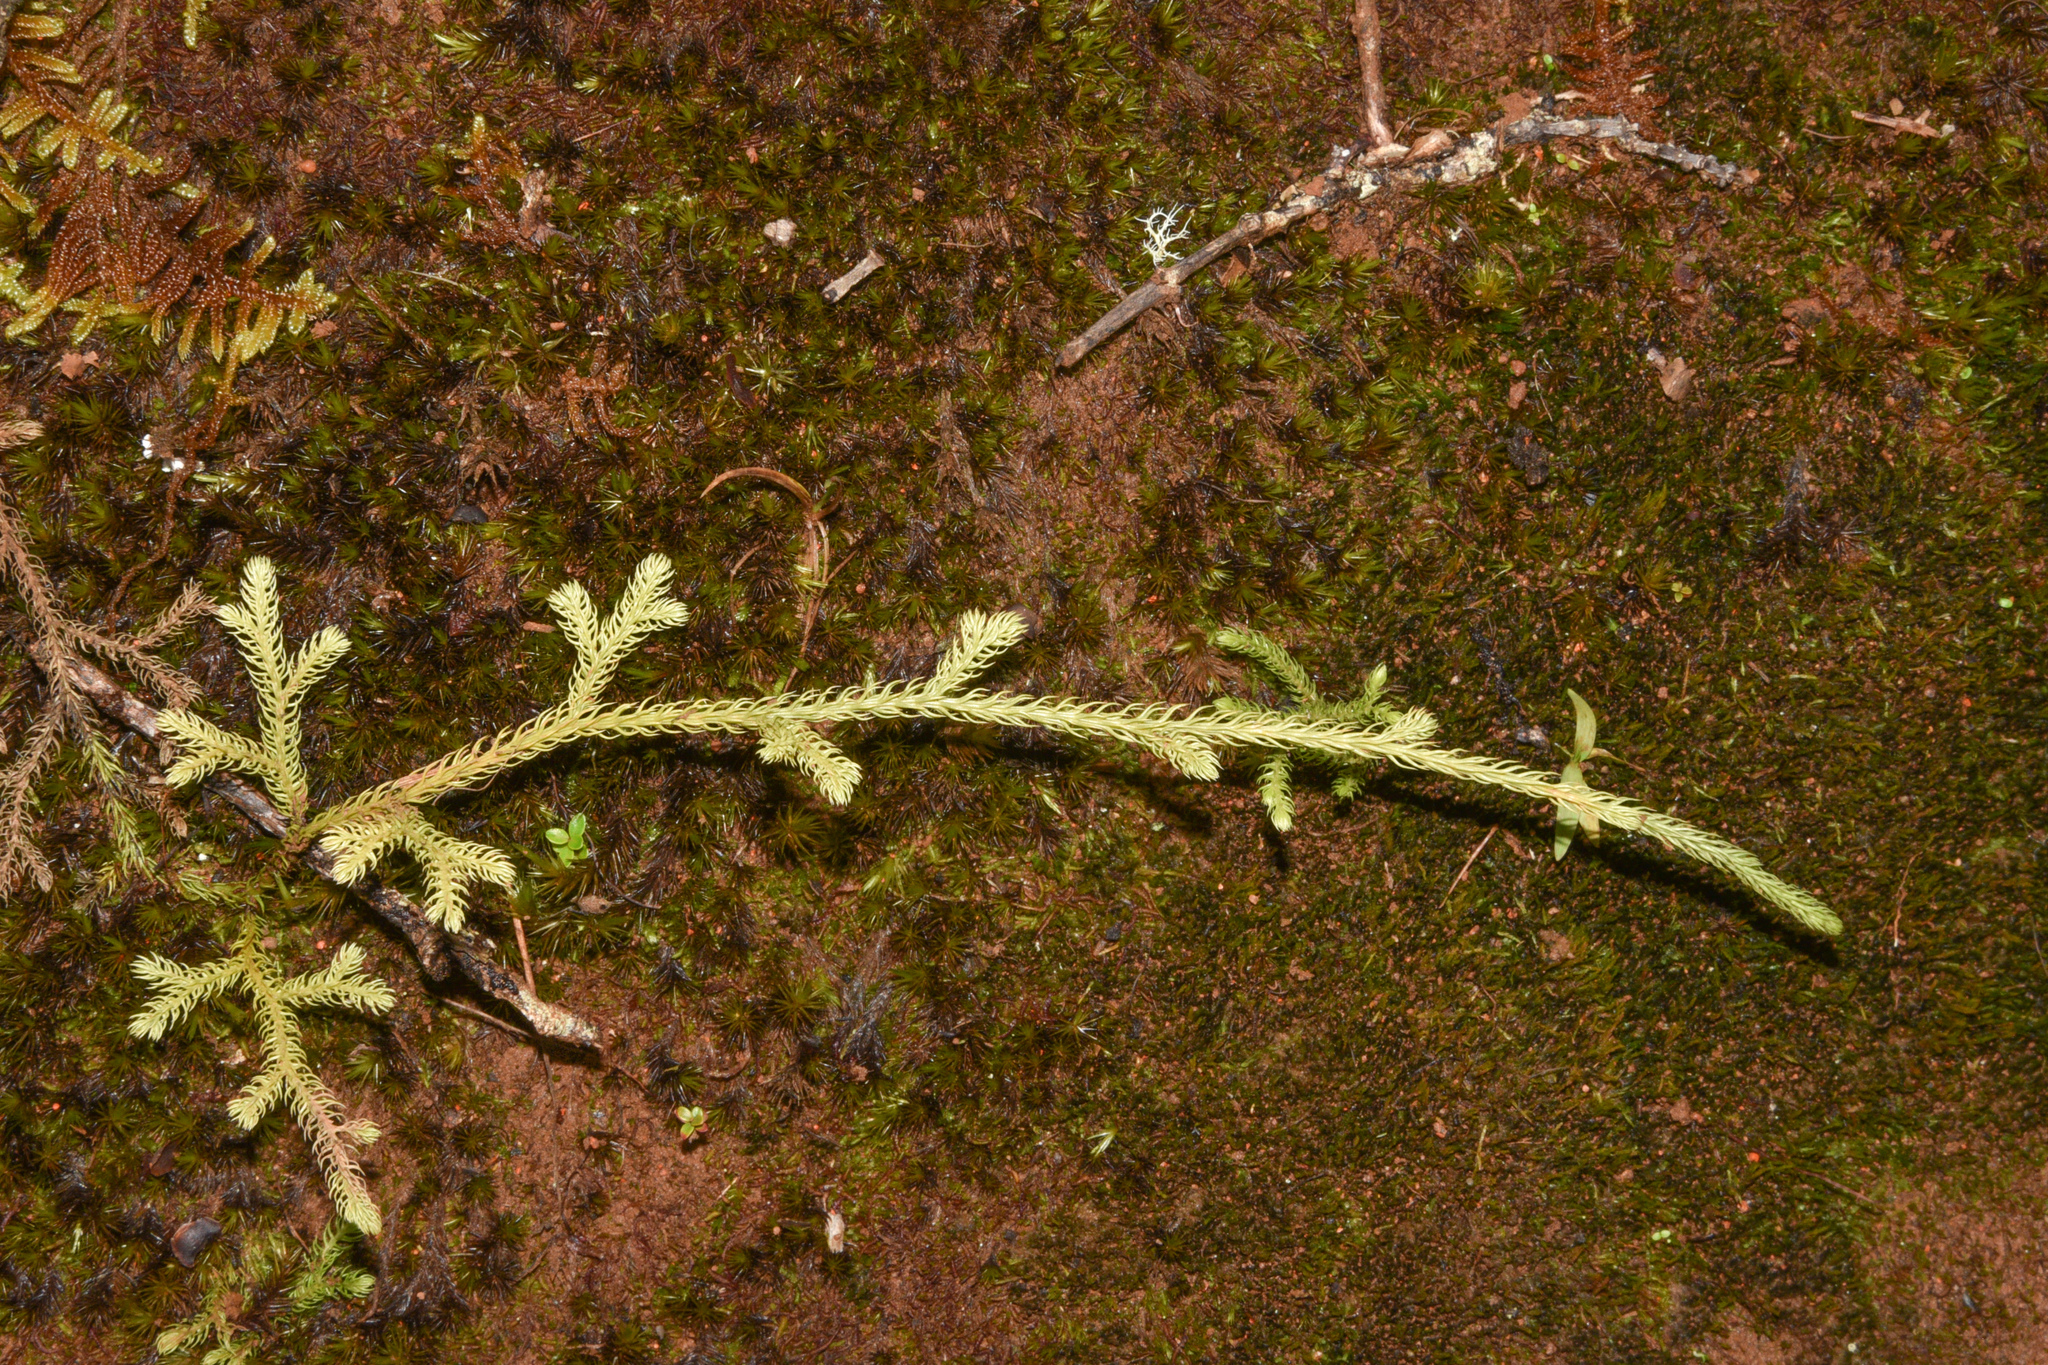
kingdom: Plantae
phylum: Tracheophyta
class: Lycopodiopsida
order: Lycopodiales
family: Lycopodiaceae
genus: Palhinhaea
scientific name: Palhinhaea cernua
